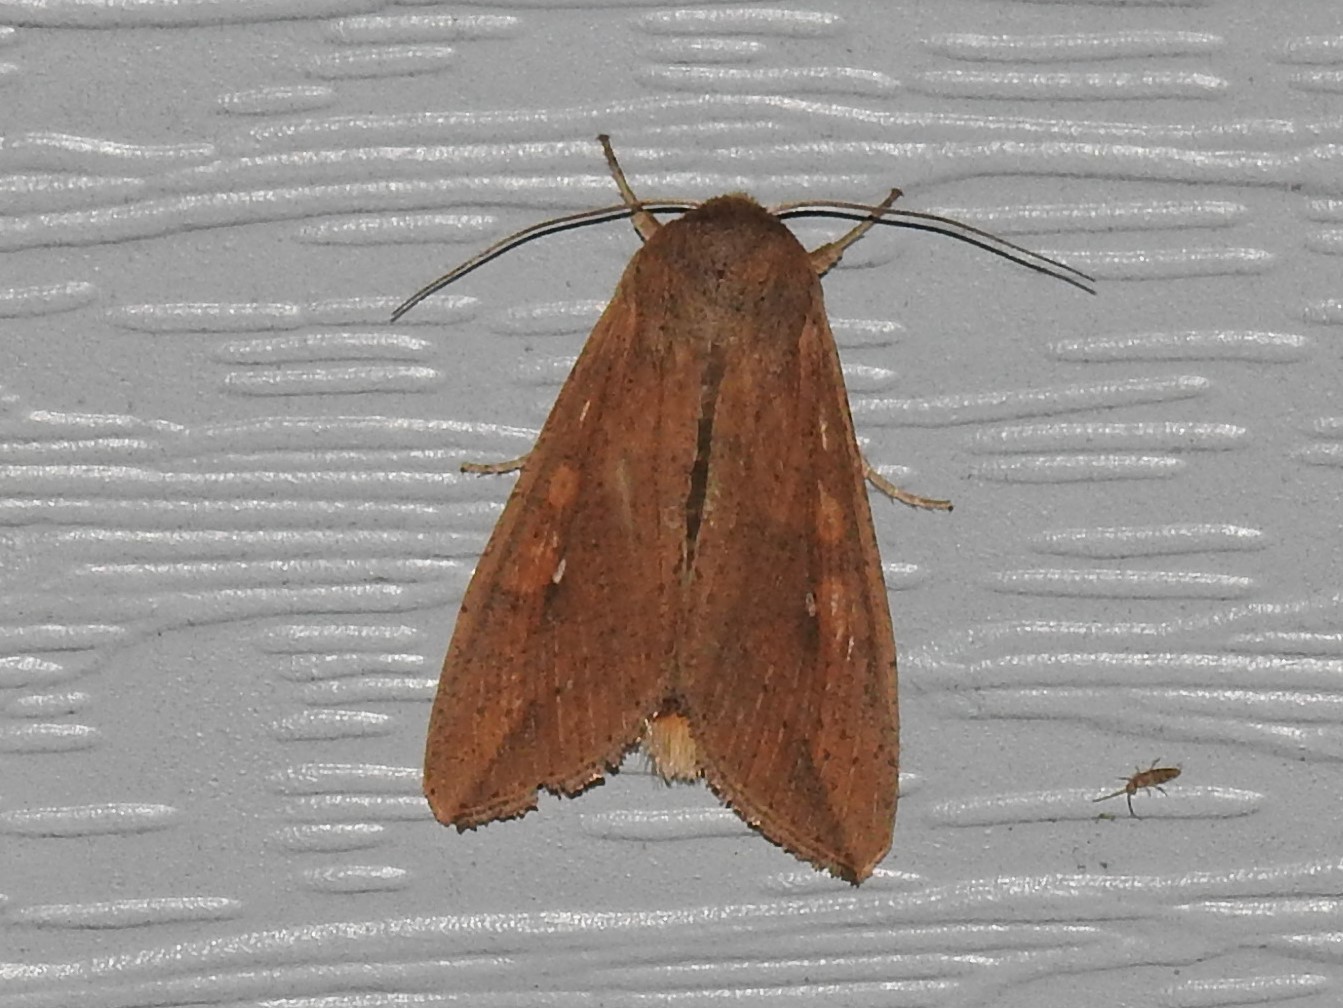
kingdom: Animalia
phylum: Arthropoda
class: Insecta
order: Lepidoptera
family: Noctuidae
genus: Mythimna
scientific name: Mythimna unipuncta
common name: White-speck
